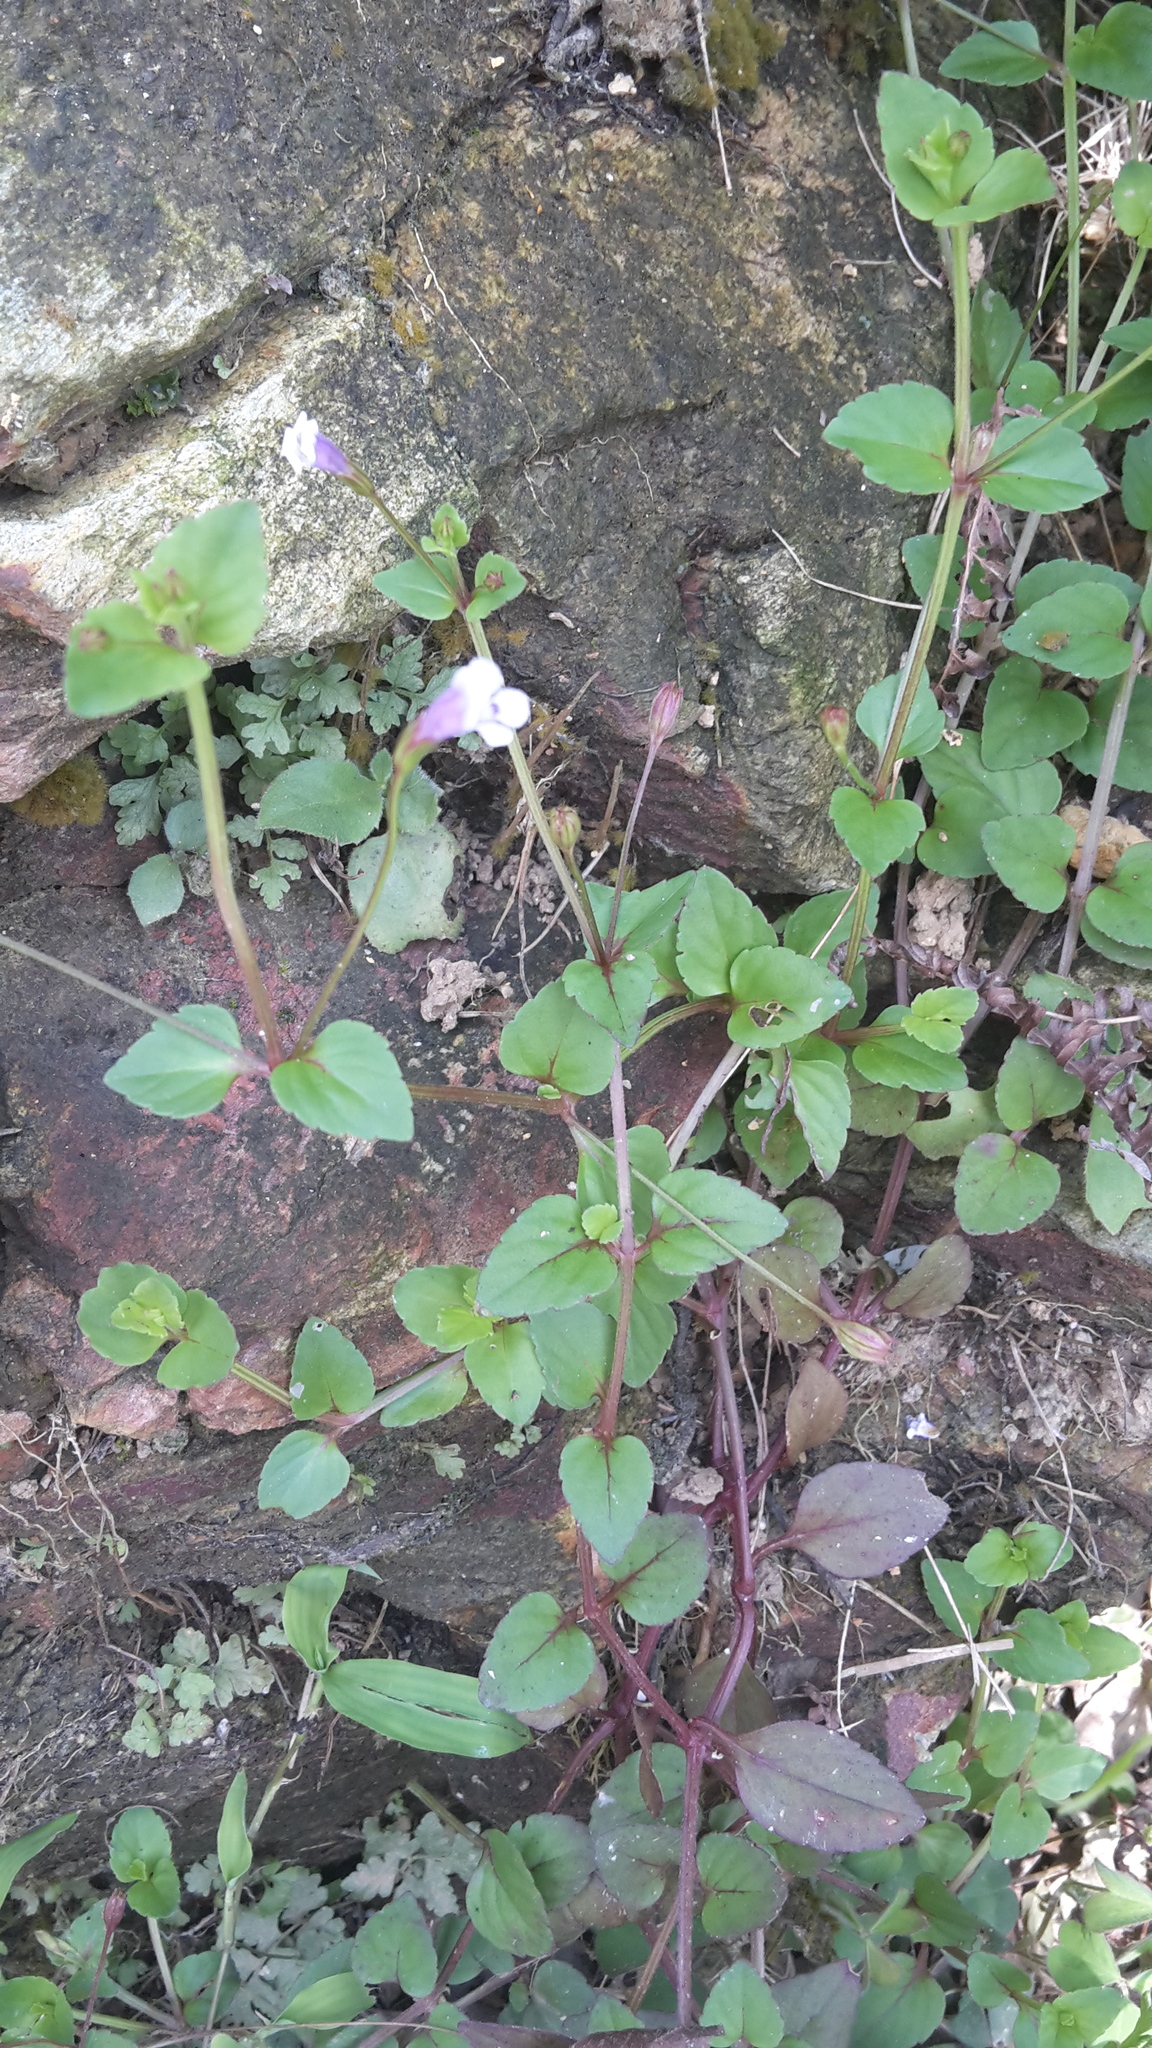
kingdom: Plantae
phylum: Tracheophyta
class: Magnoliopsida
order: Lamiales
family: Linderniaceae
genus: Torenia
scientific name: Torenia crustacea
